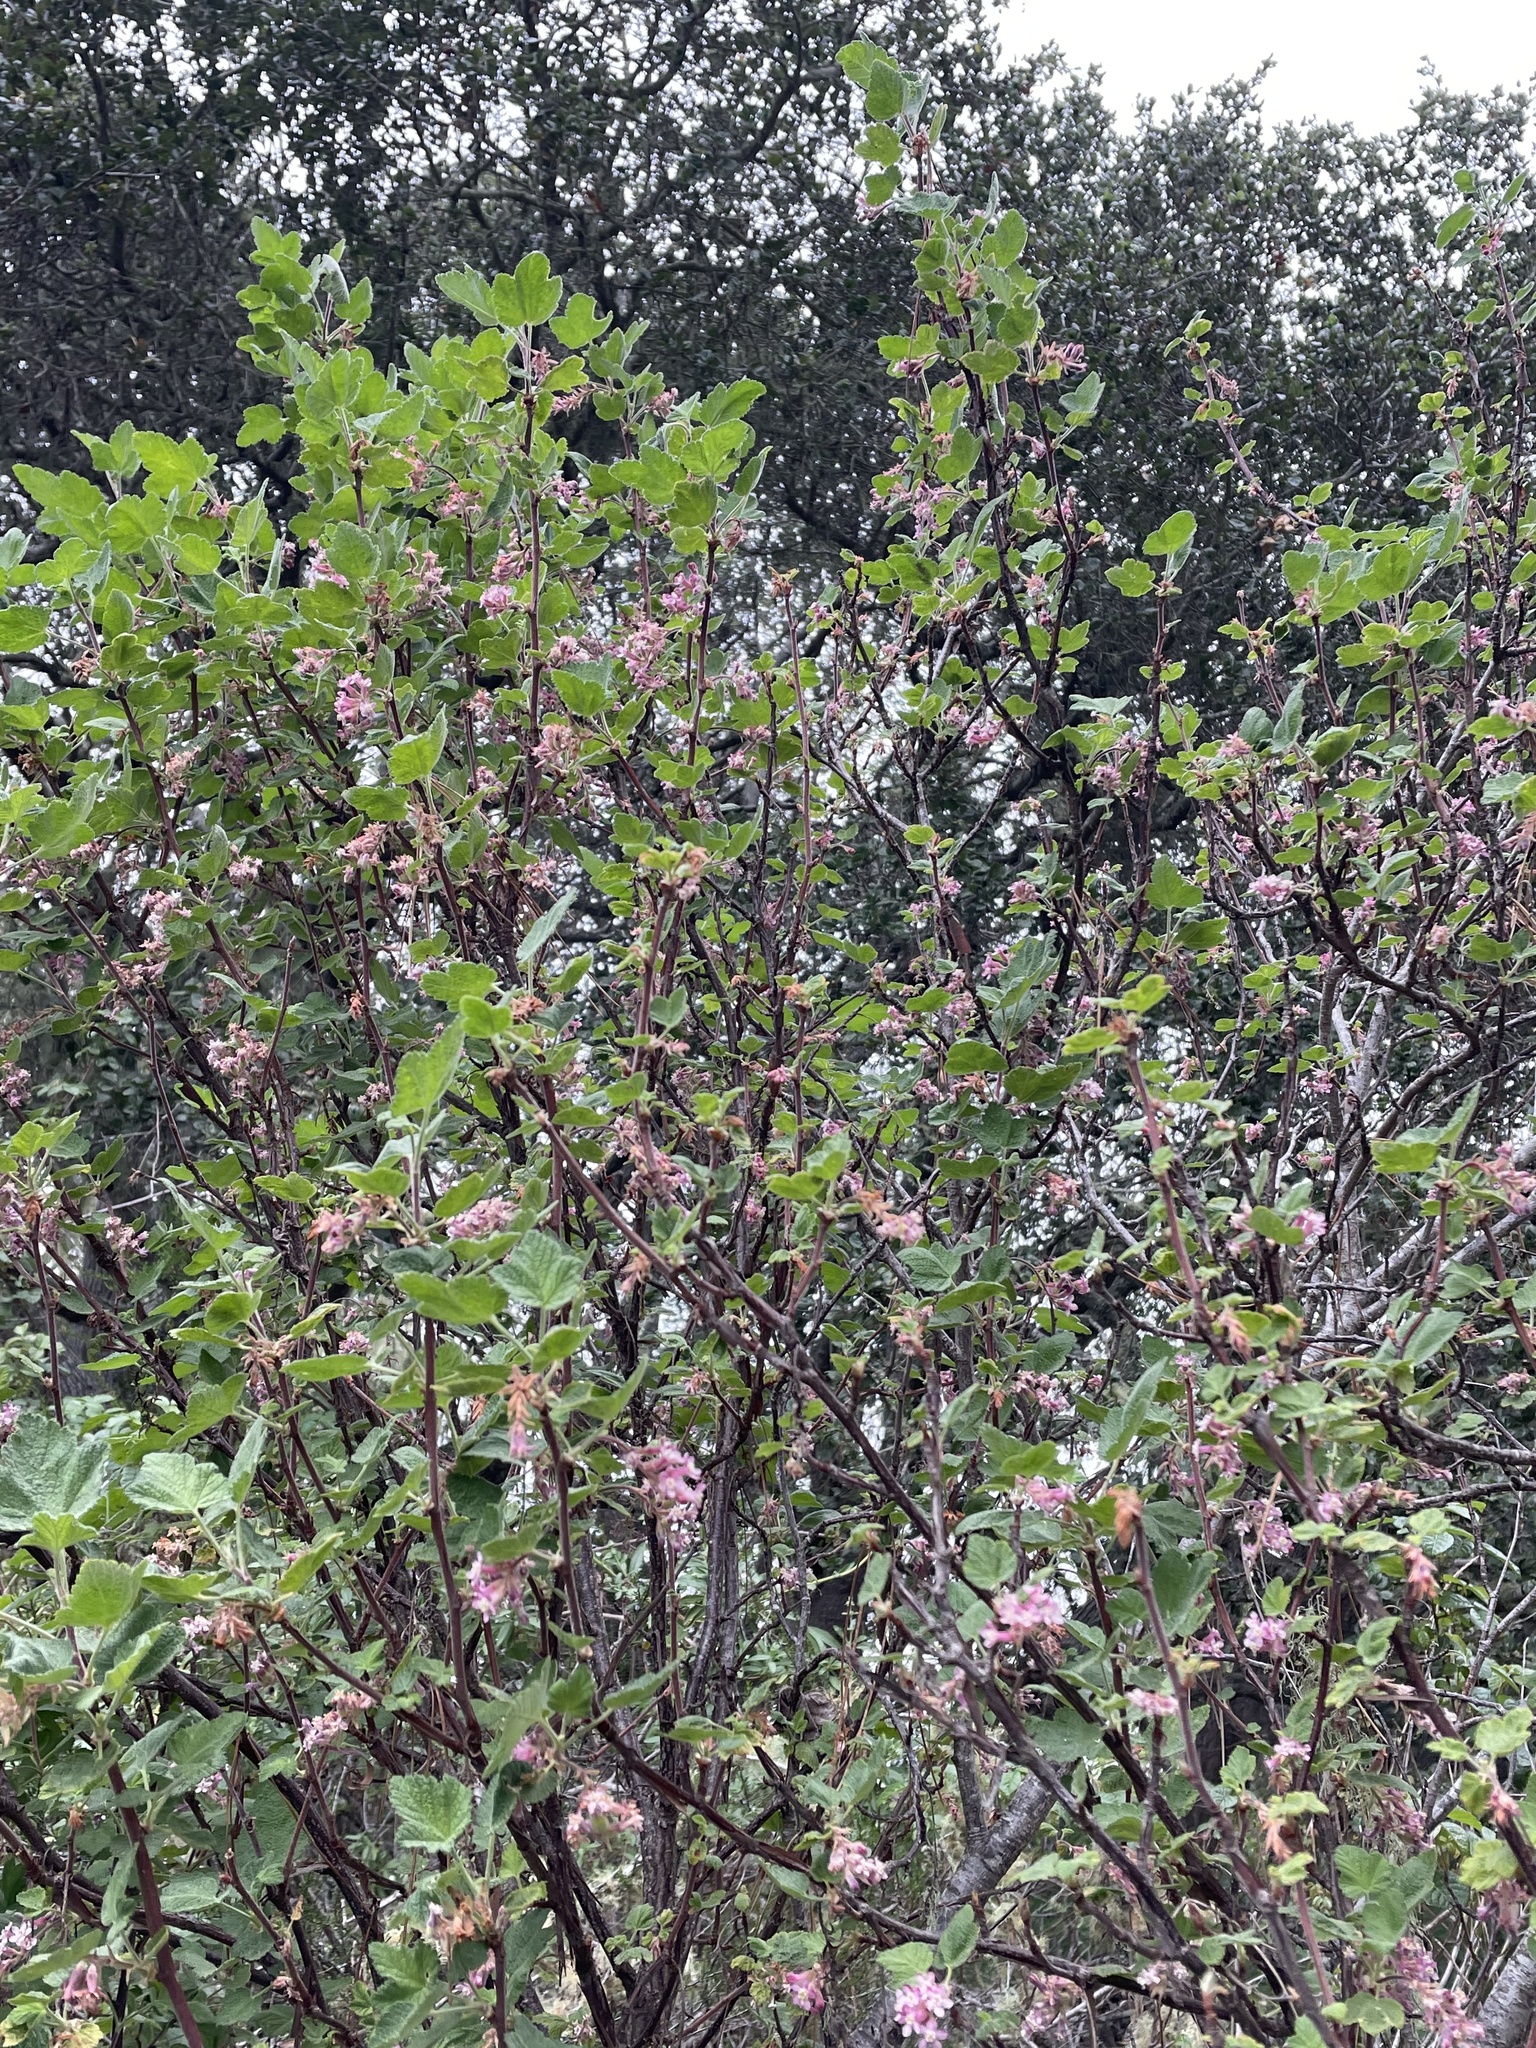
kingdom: Plantae
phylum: Tracheophyta
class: Magnoliopsida
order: Saxifragales
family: Grossulariaceae
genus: Ribes
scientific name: Ribes malvaceum
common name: Chaparral currant
